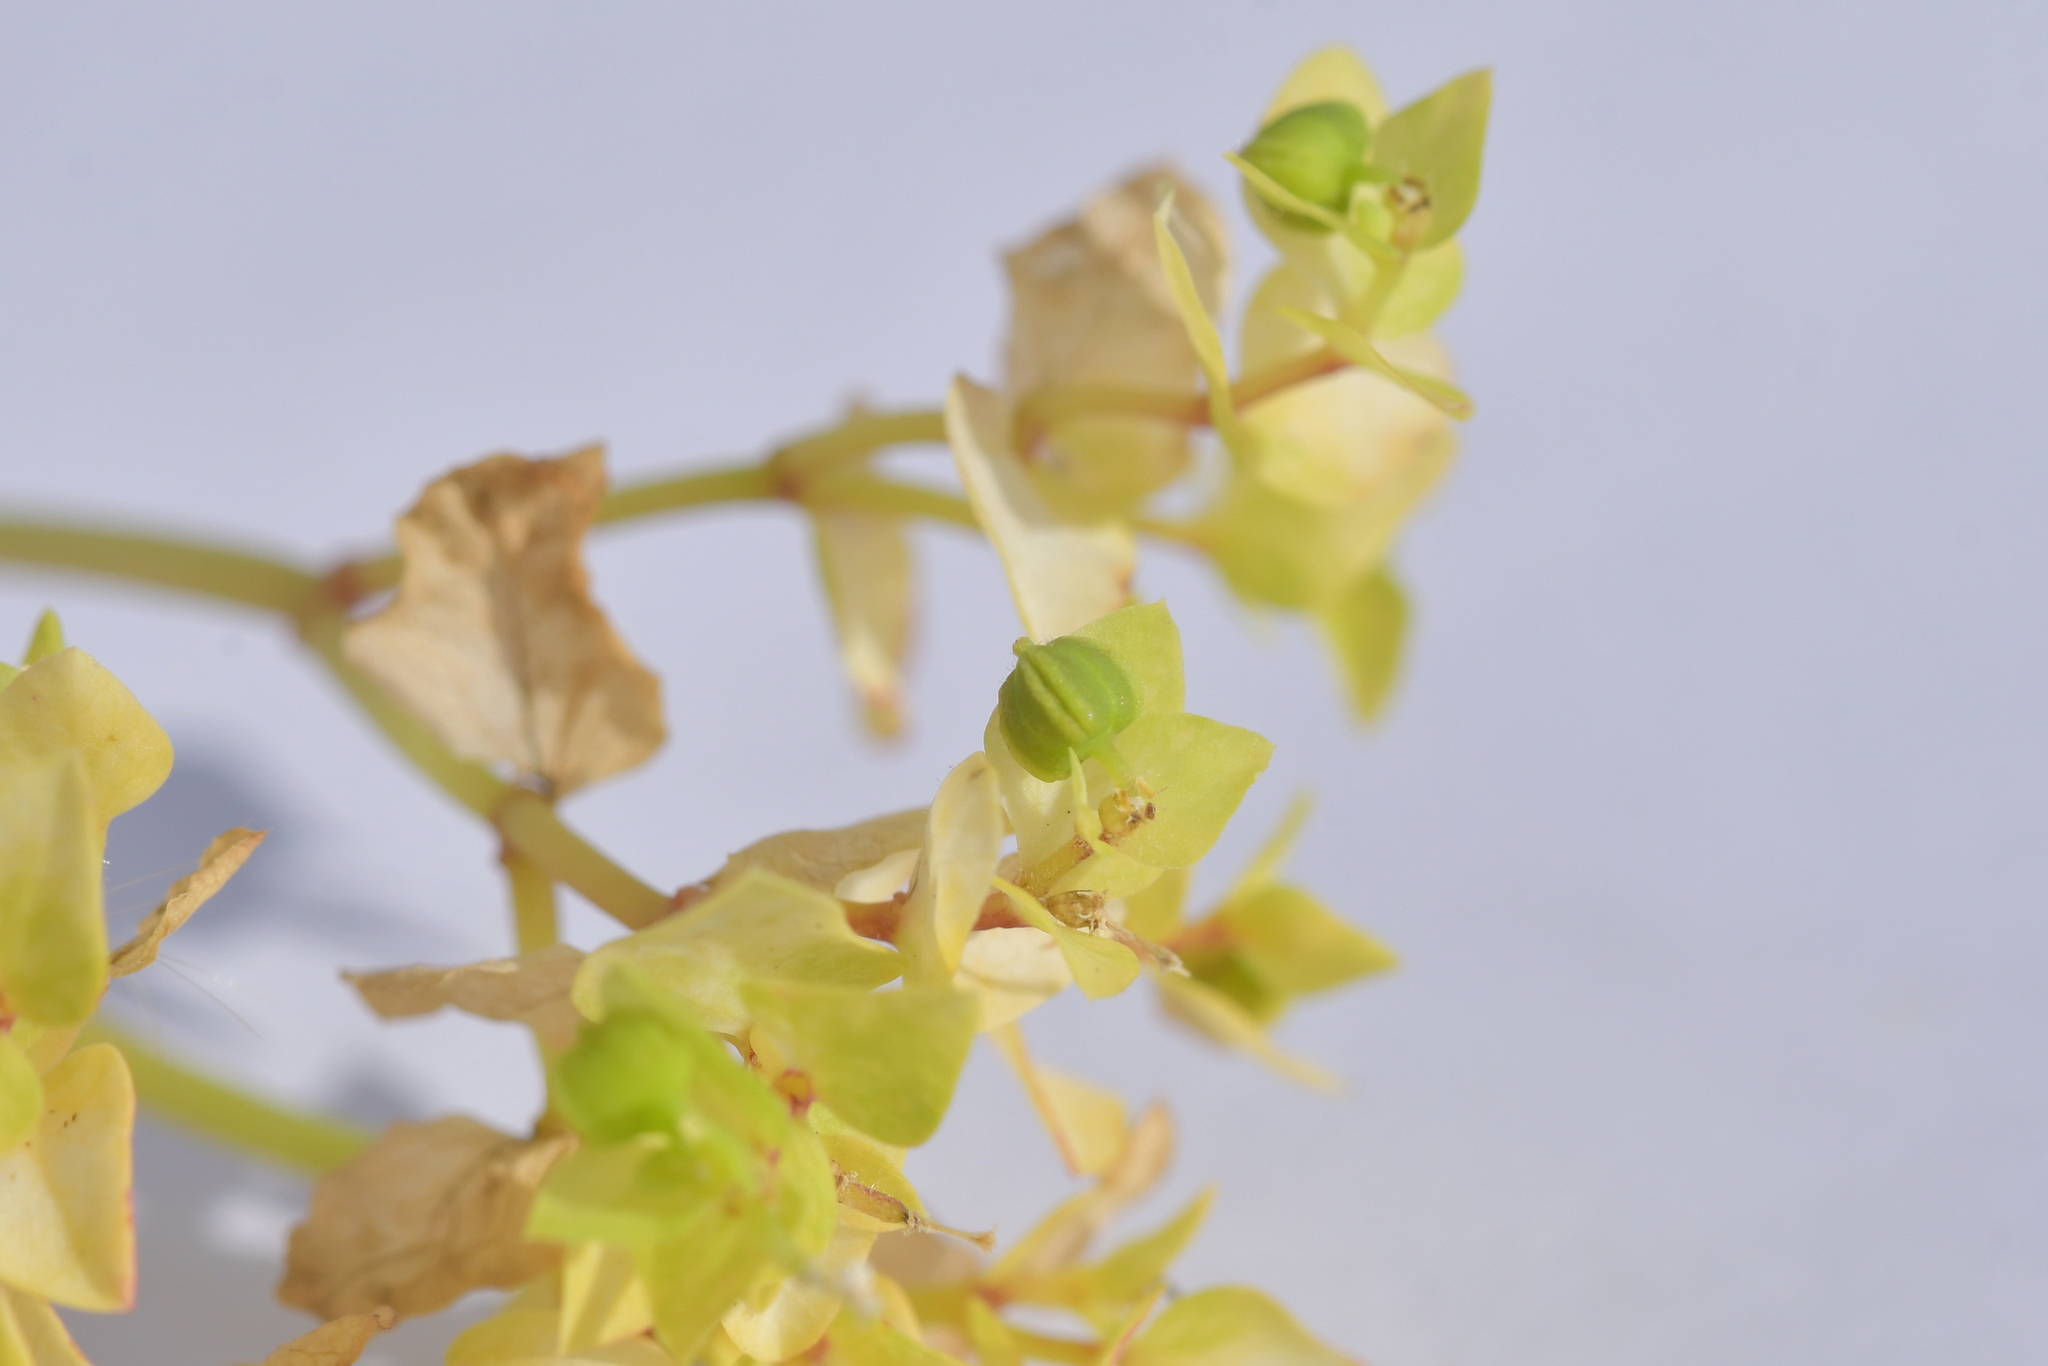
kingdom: Plantae
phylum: Tracheophyta
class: Magnoliopsida
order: Malpighiales
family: Euphorbiaceae
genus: Euphorbia
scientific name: Euphorbia peplus
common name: Petty spurge
